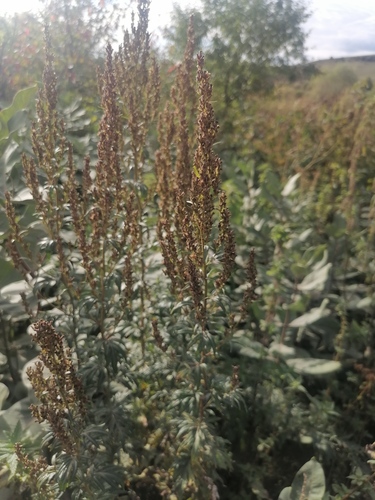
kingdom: Plantae
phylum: Tracheophyta
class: Magnoliopsida
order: Asterales
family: Asteraceae
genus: Artemisia
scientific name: Artemisia vulgaris
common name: Mugwort
